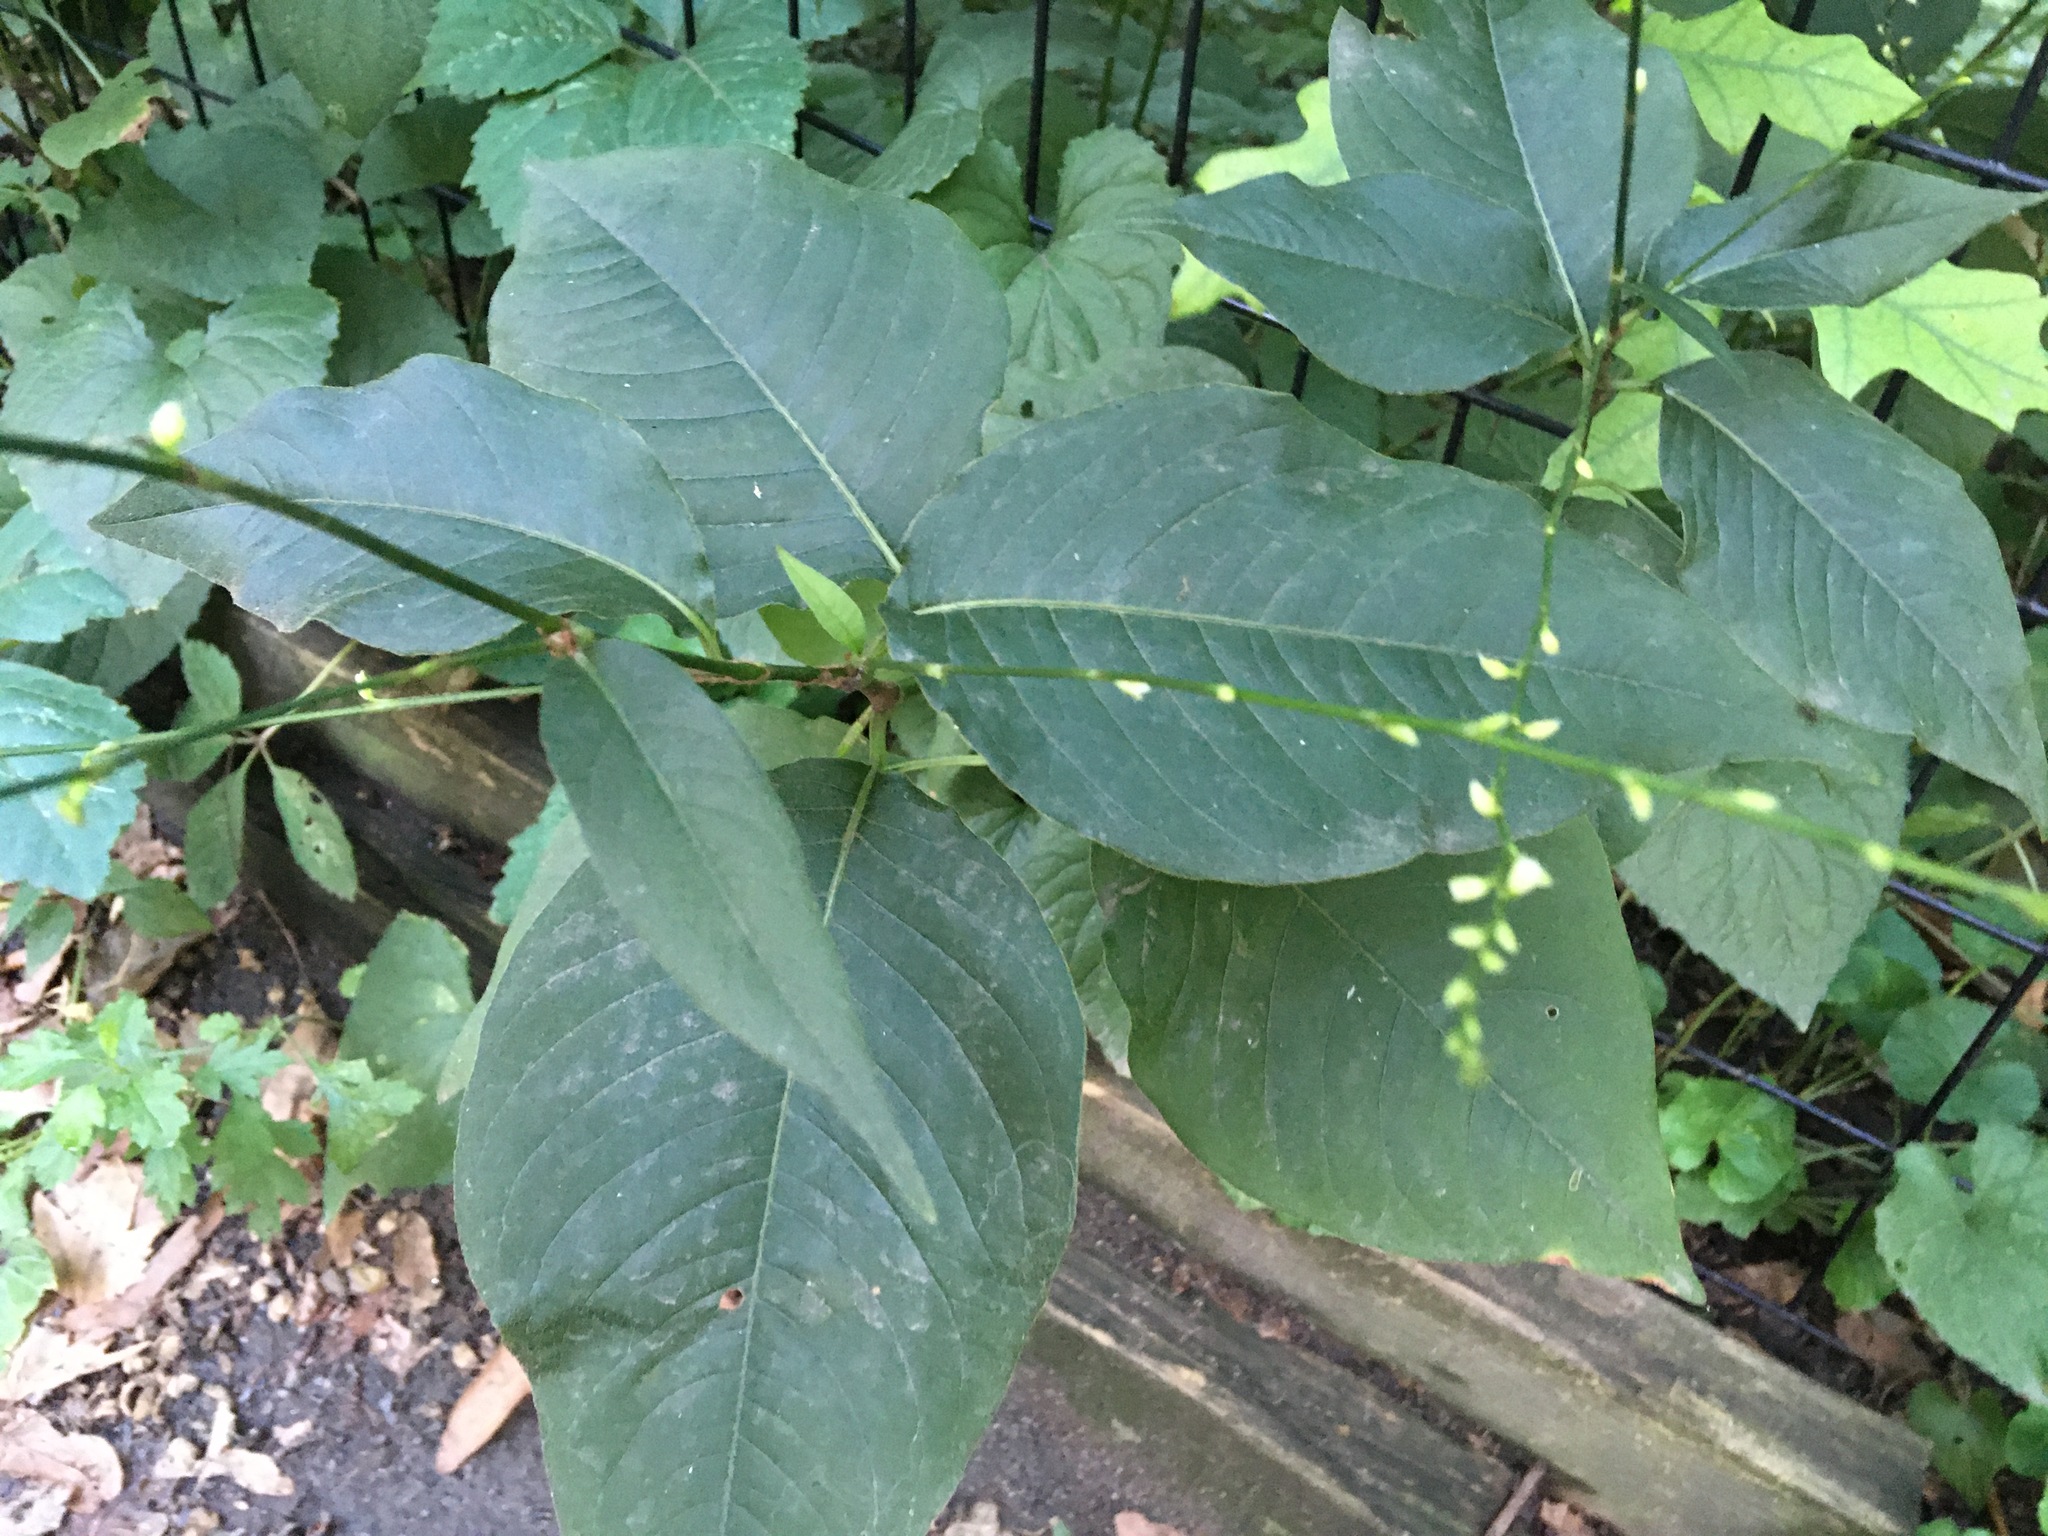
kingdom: Plantae
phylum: Tracheophyta
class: Magnoliopsida
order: Caryophyllales
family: Polygonaceae
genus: Persicaria
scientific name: Persicaria virginiana
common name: Jumpseed
